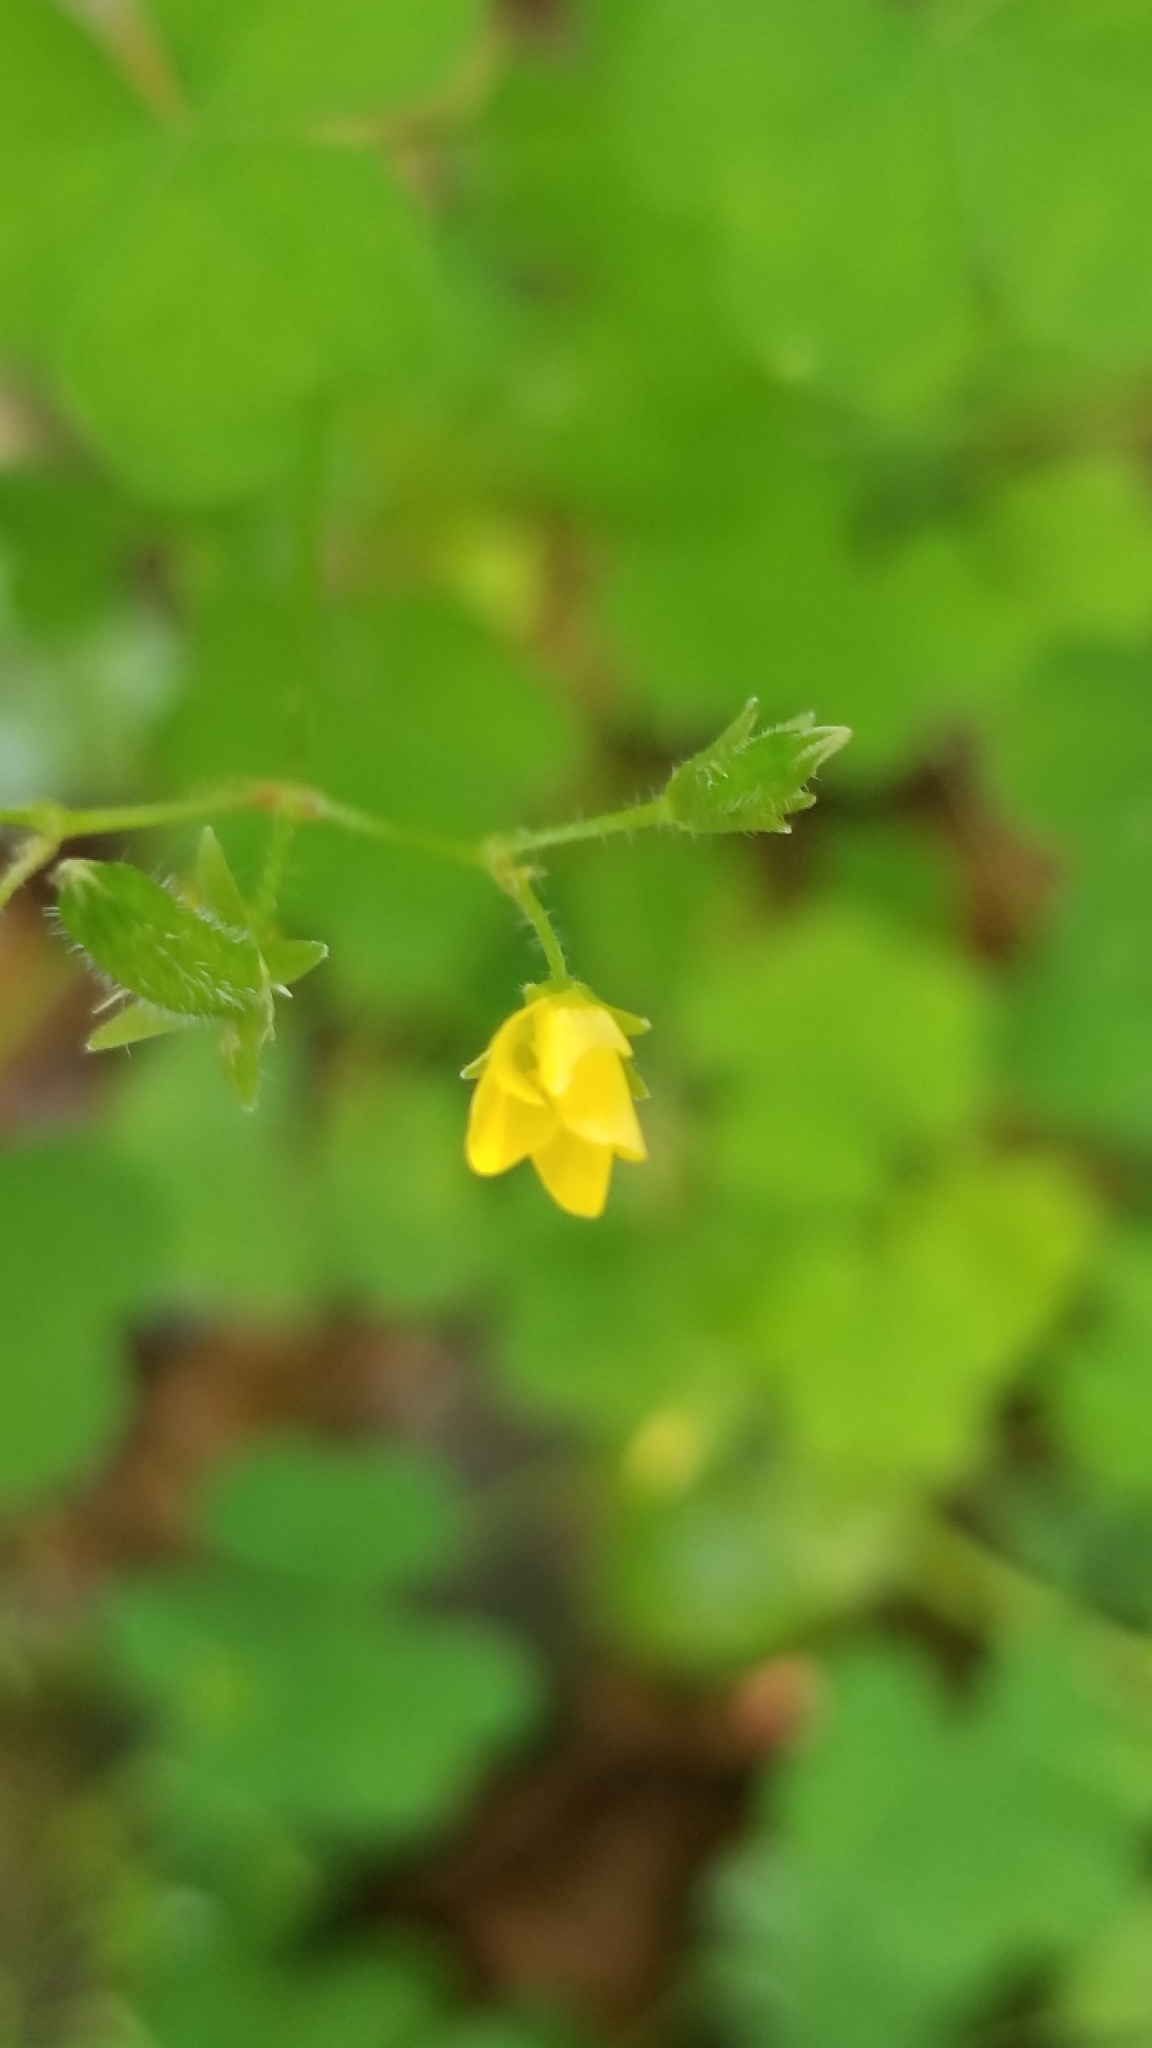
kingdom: Plantae
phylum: Tracheophyta
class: Magnoliopsida
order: Oxalidales
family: Oxalidaceae
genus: Oxalis
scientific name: Oxalis stricta
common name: Upright yellow-sorrel
